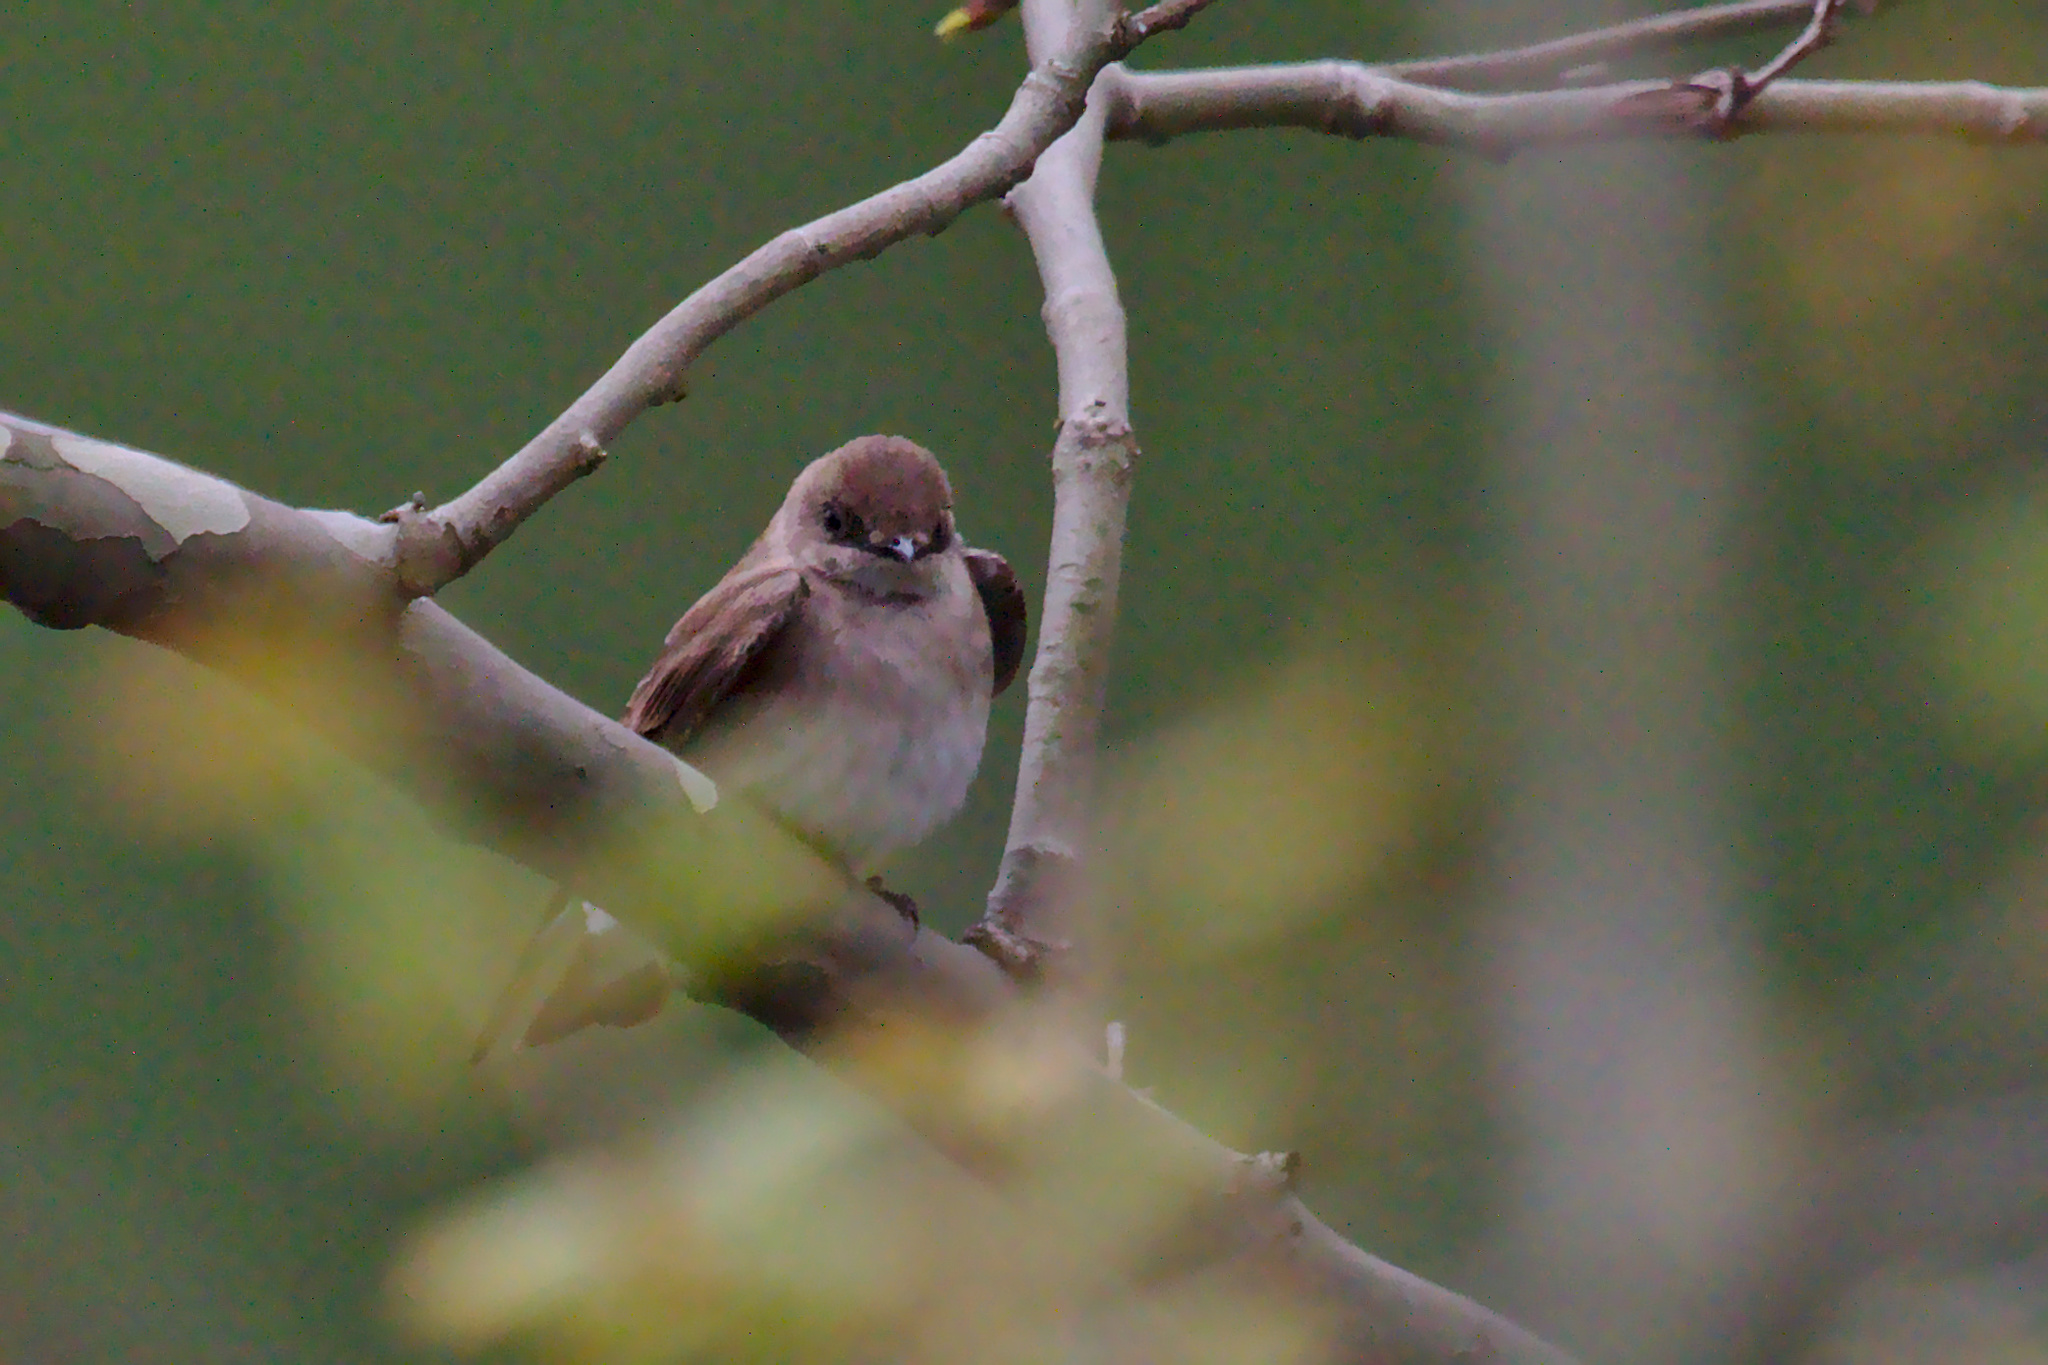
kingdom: Animalia
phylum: Chordata
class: Aves
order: Passeriformes
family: Hirundinidae
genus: Stelgidopteryx
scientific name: Stelgidopteryx serripennis
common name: Northern rough-winged swallow
